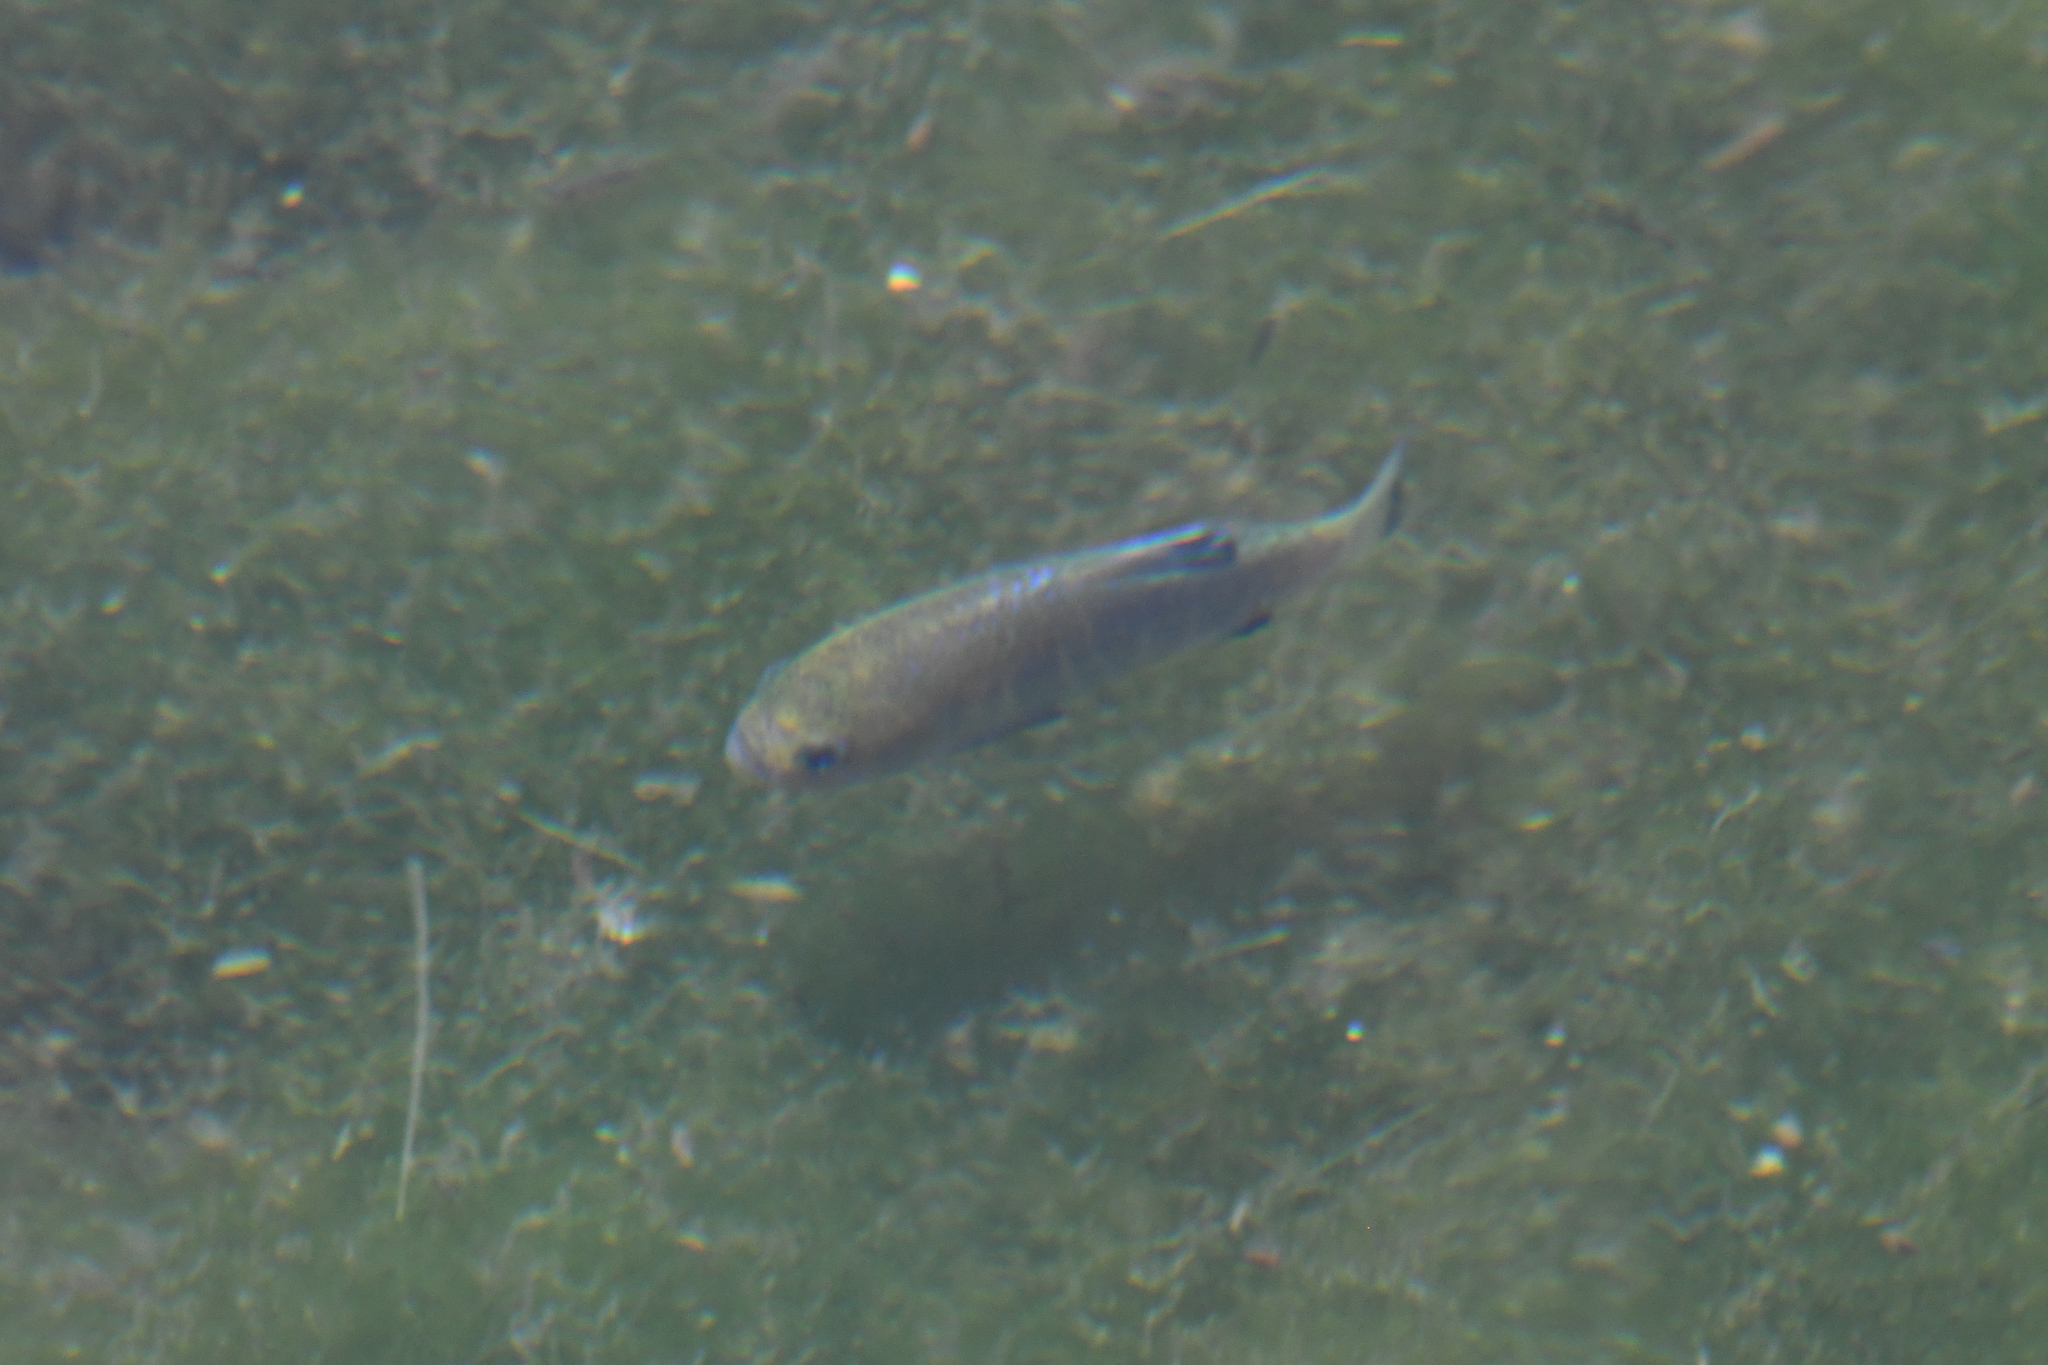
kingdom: Animalia
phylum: Chordata
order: Cyprinodontiformes
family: Cyprinodontidae
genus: Cyprinodon
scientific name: Cyprinodon nevadensis
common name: Amargosa pupfish
